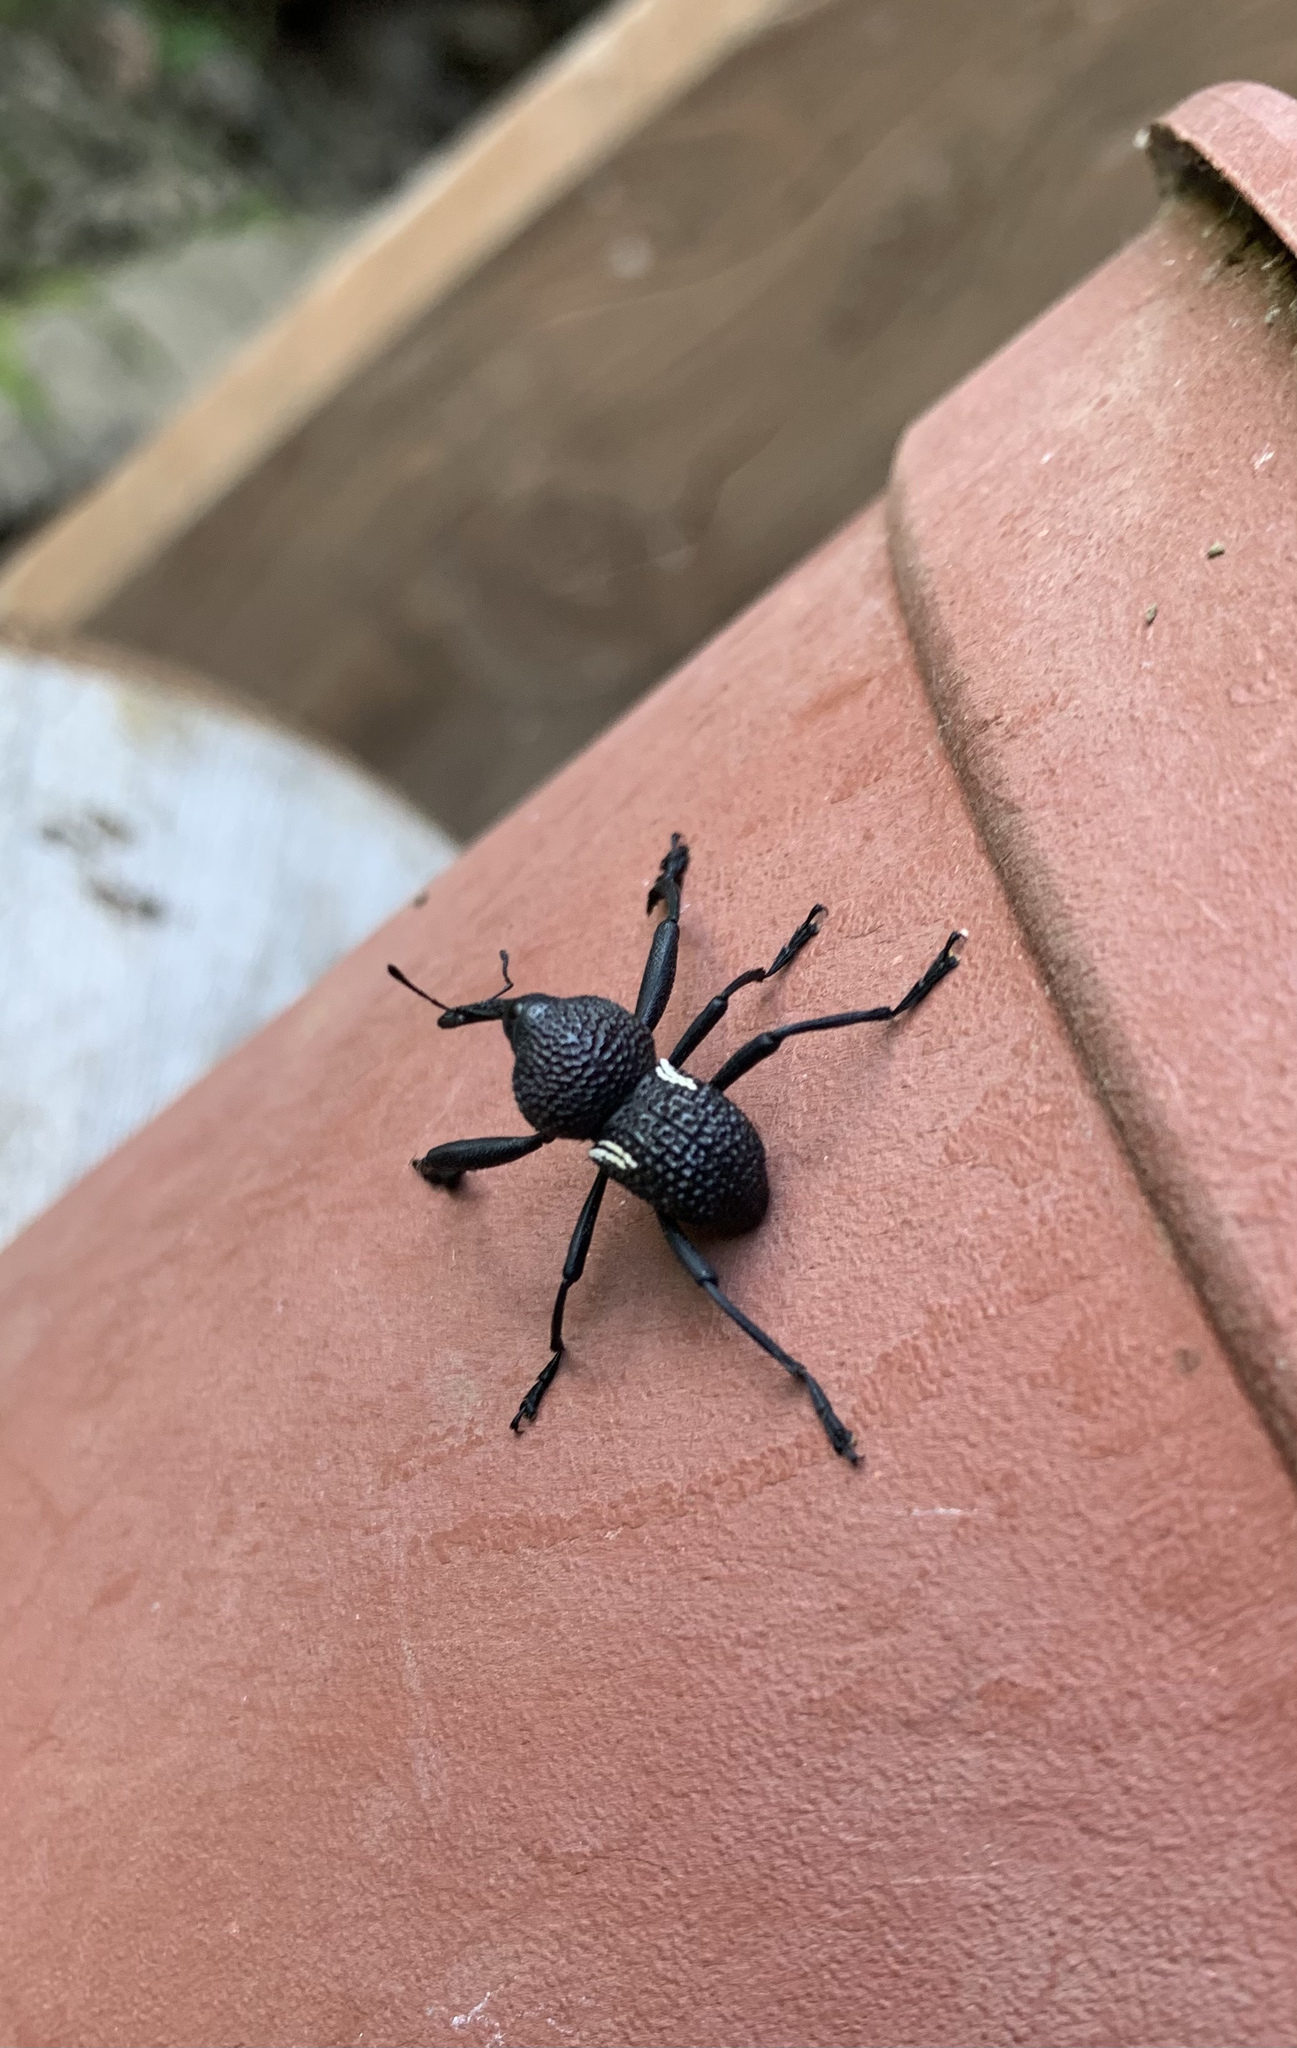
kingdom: Animalia
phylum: Arthropoda
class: Insecta
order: Coleoptera
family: Curculionidae
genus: Rhyephenes
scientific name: Rhyephenes humeralis
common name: Araè±ita chilena del pino
